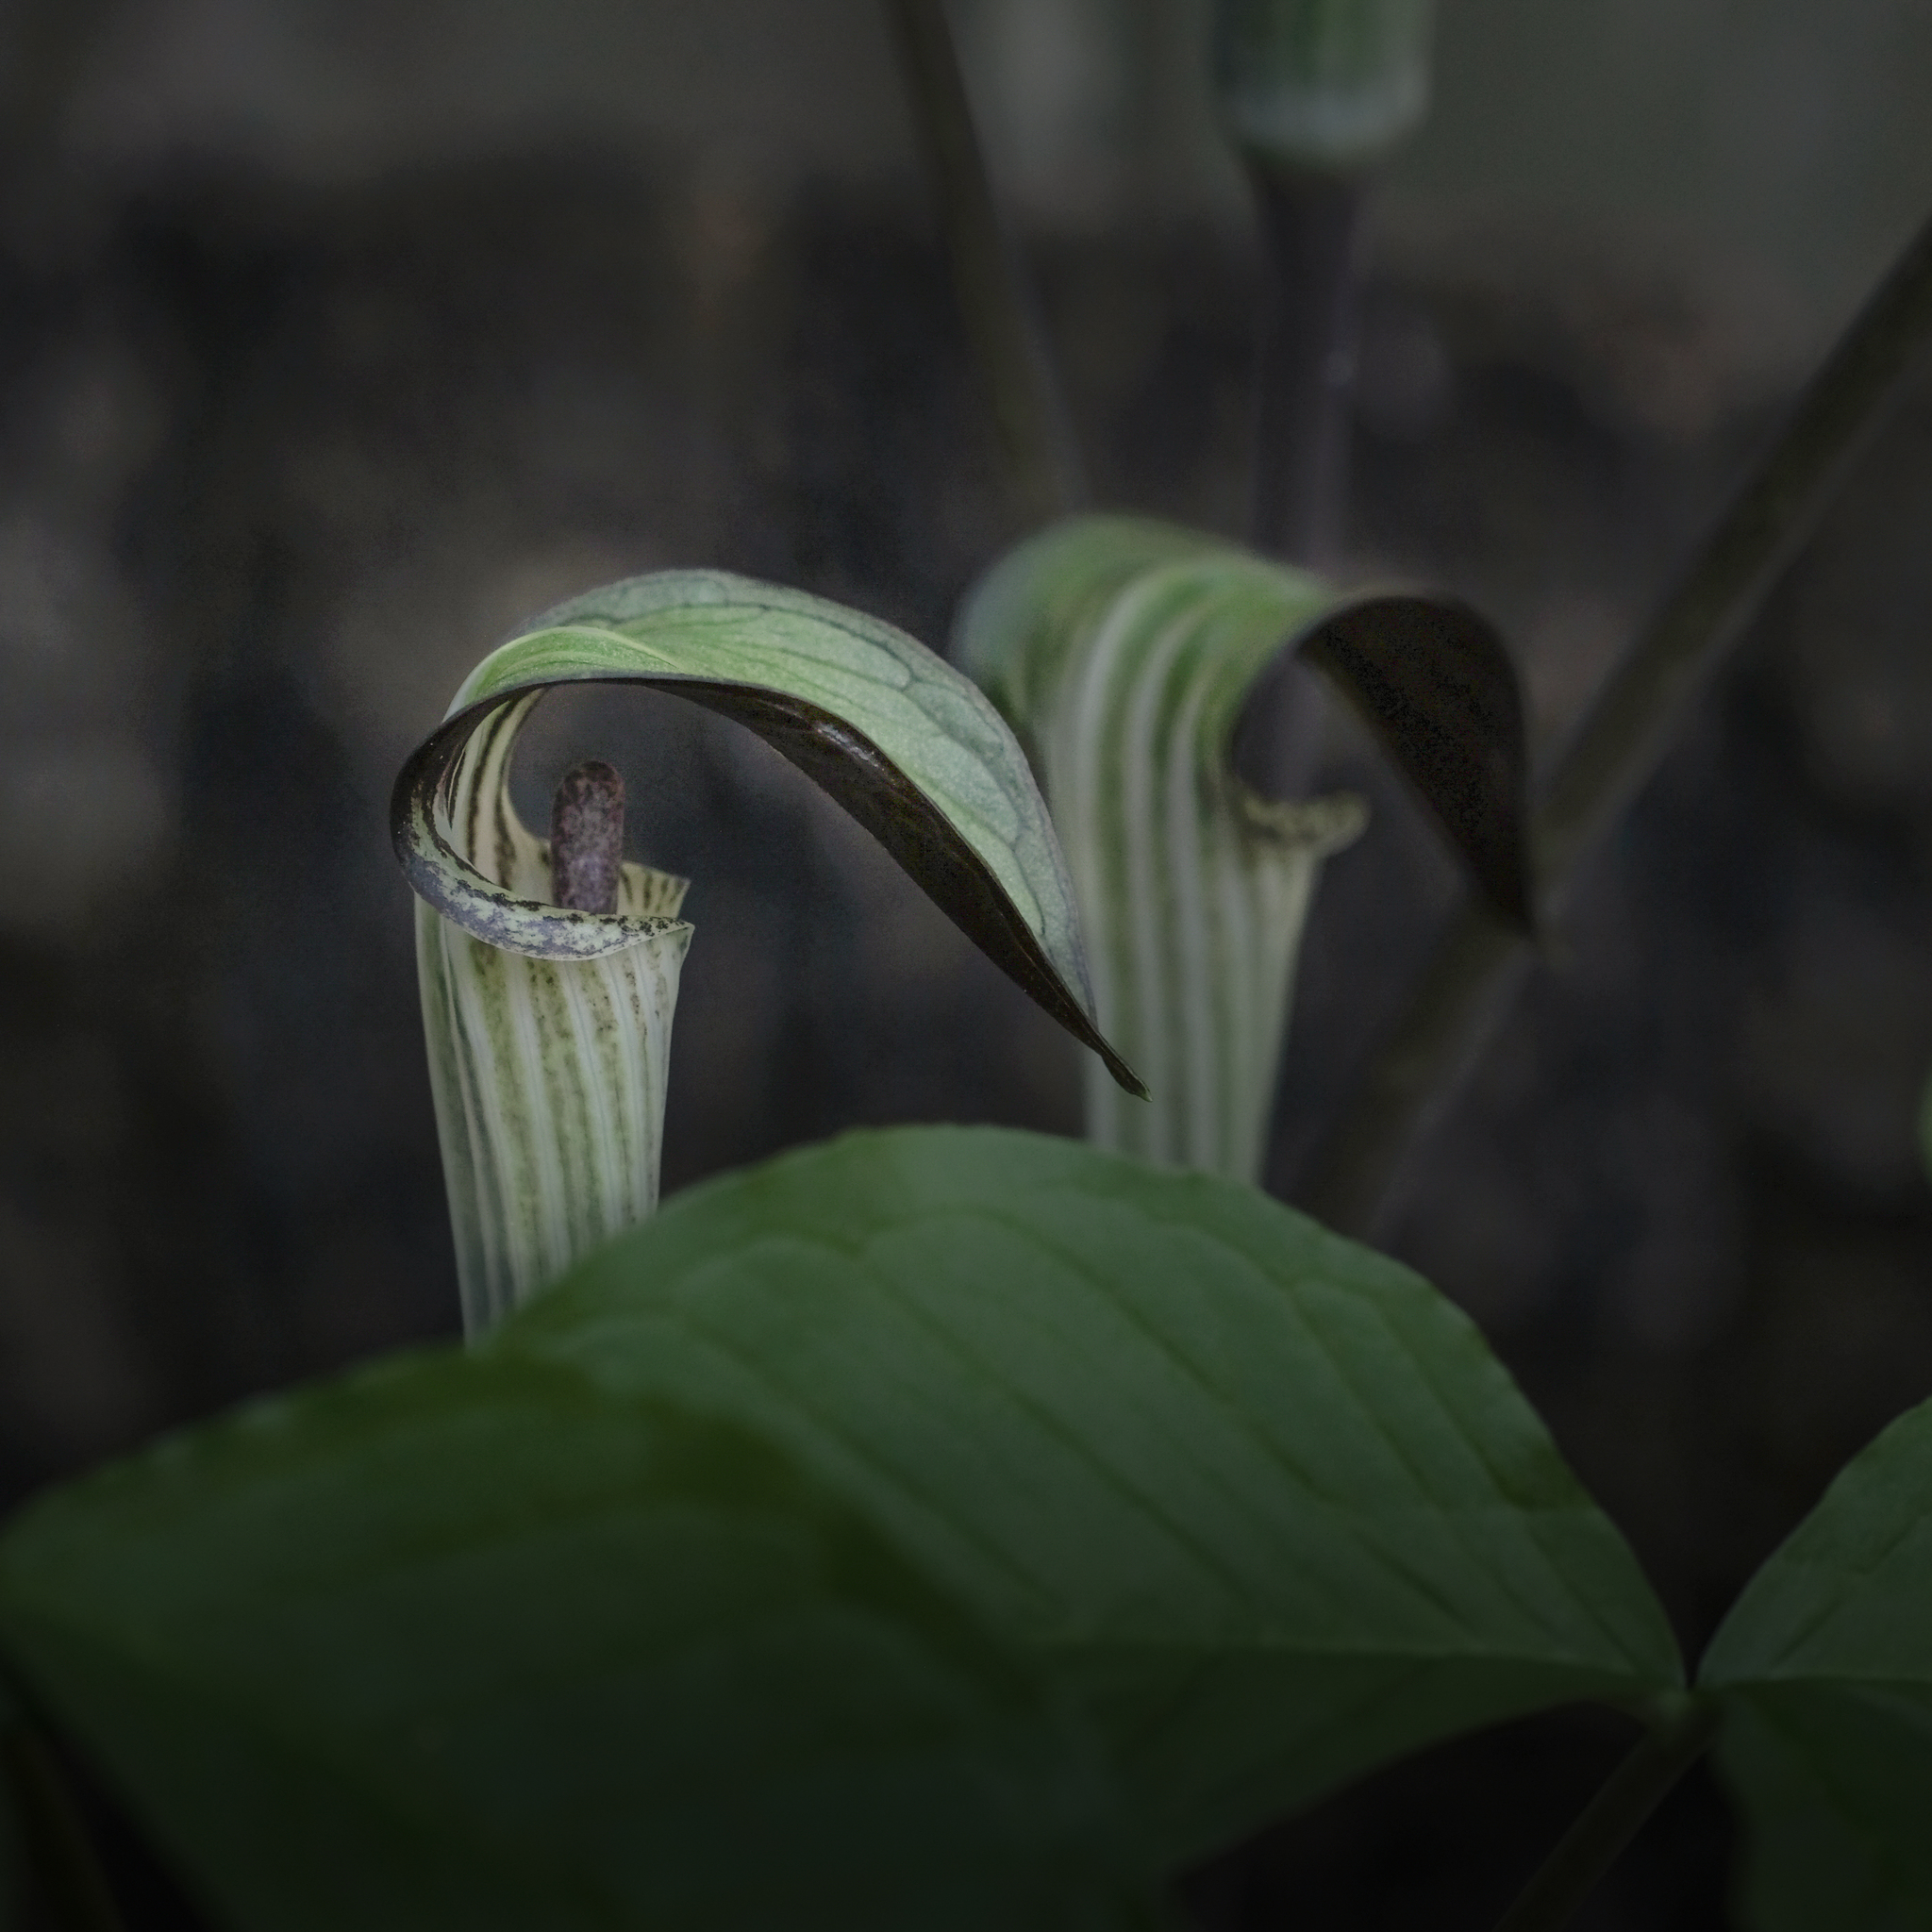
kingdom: Plantae
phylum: Tracheophyta
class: Liliopsida
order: Alismatales
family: Araceae
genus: Arisaema
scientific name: Arisaema triphyllum
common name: Jack-in-the-pulpit
